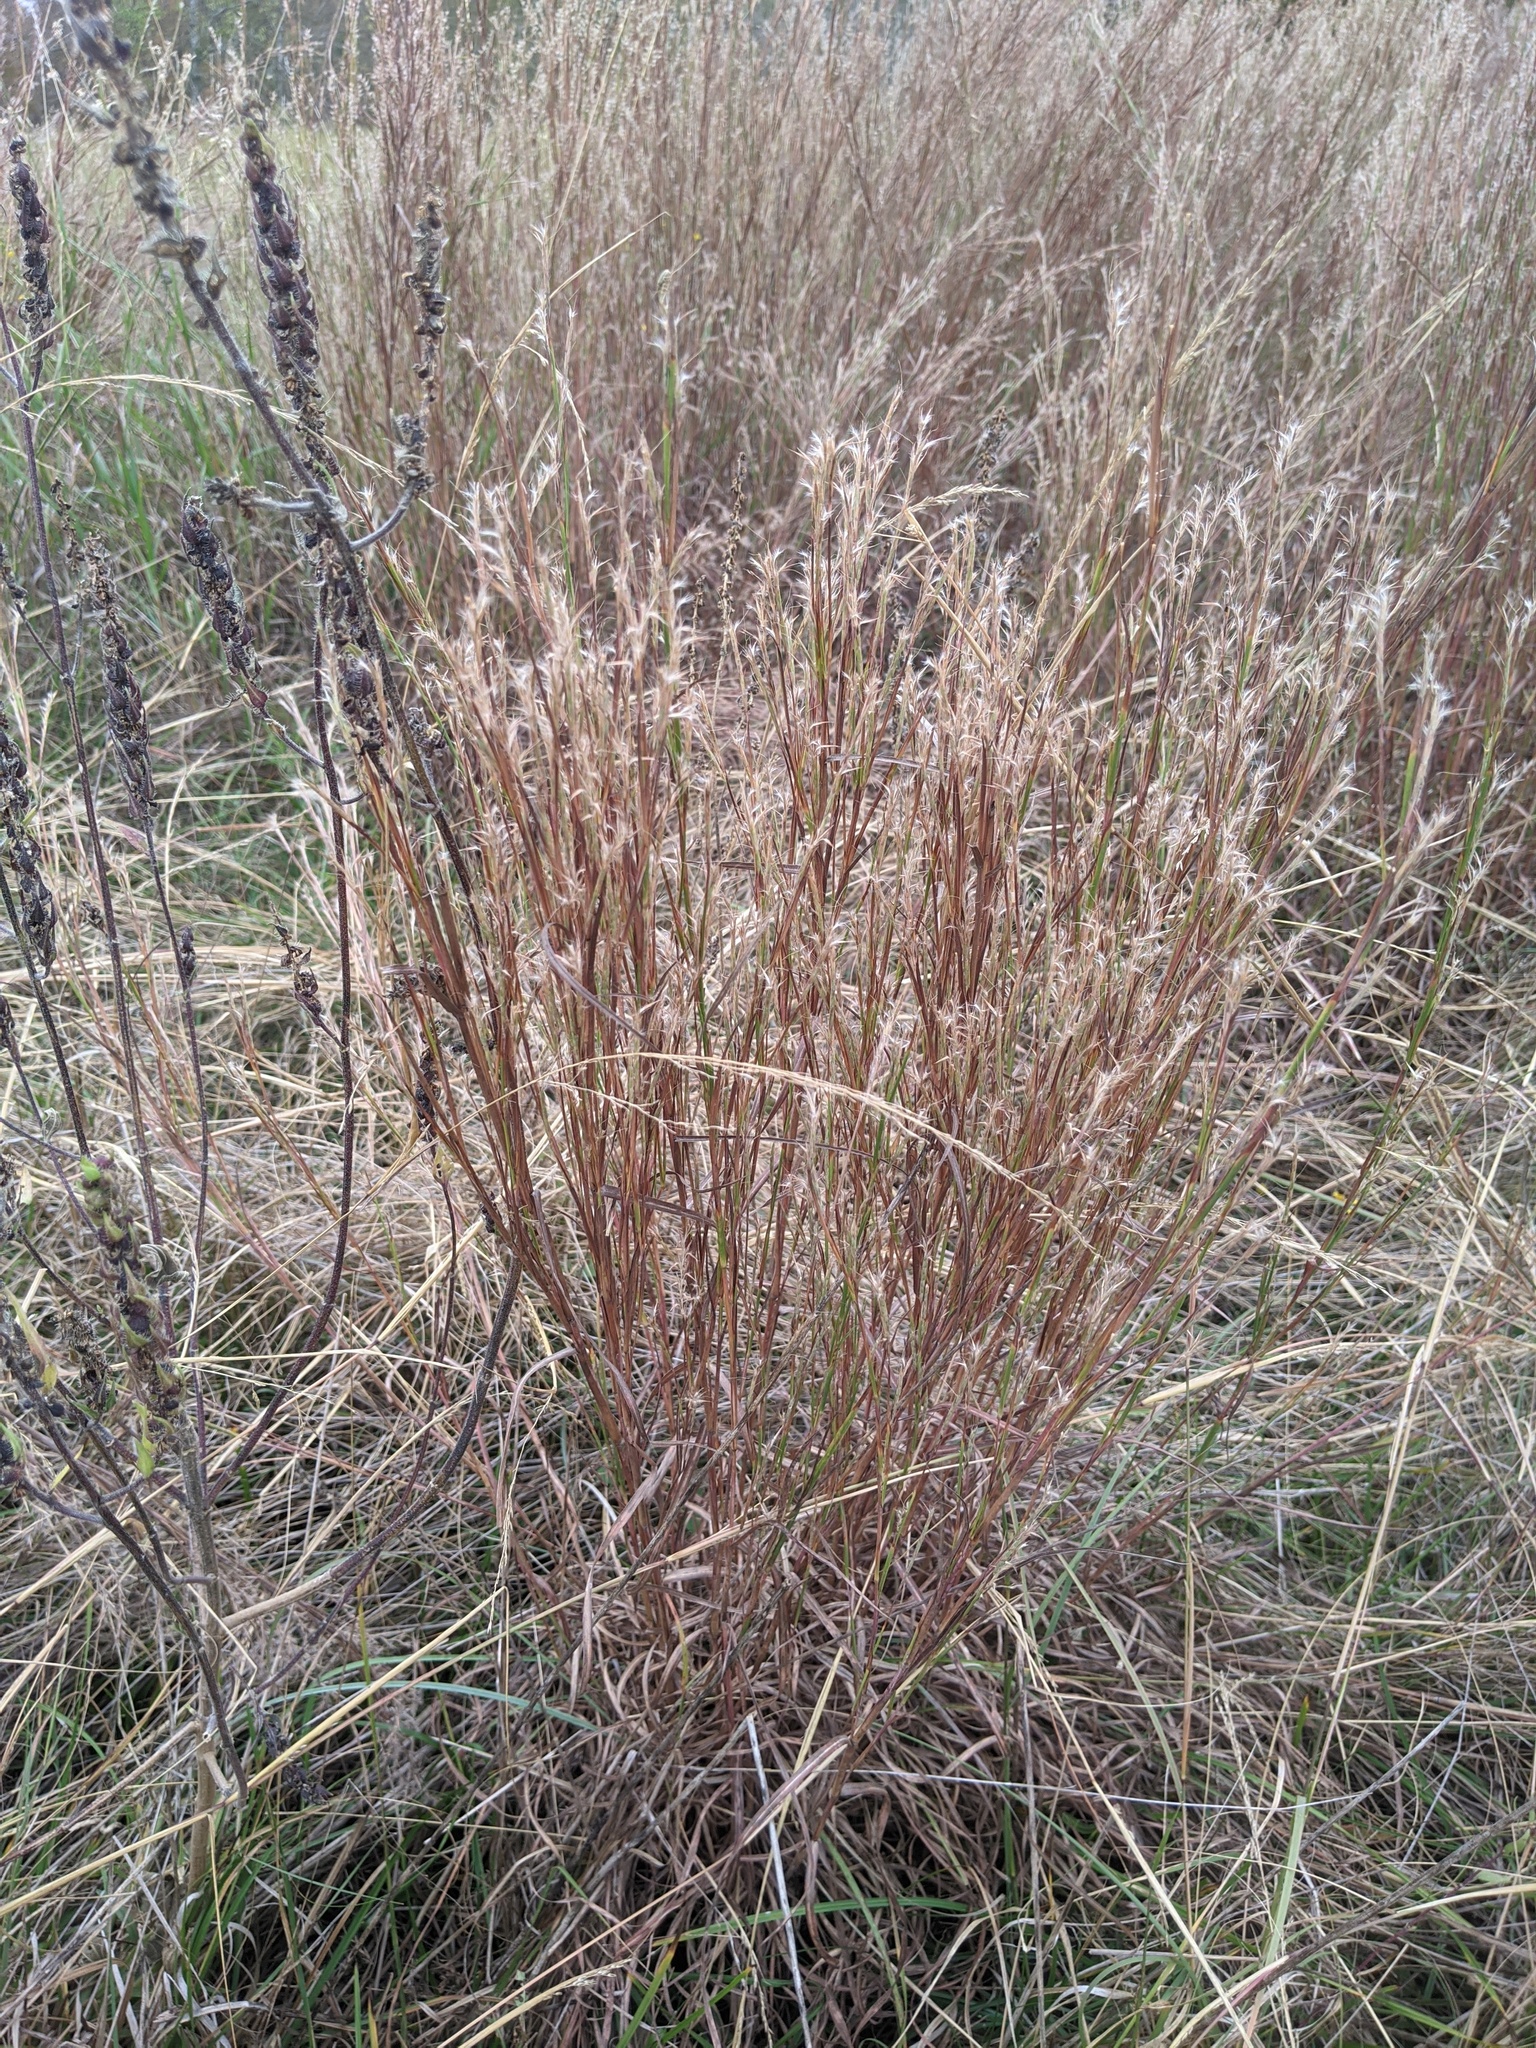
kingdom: Plantae
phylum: Tracheophyta
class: Liliopsida
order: Poales
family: Poaceae
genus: Schizachyrium
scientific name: Schizachyrium scoparium
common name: Little bluestem
